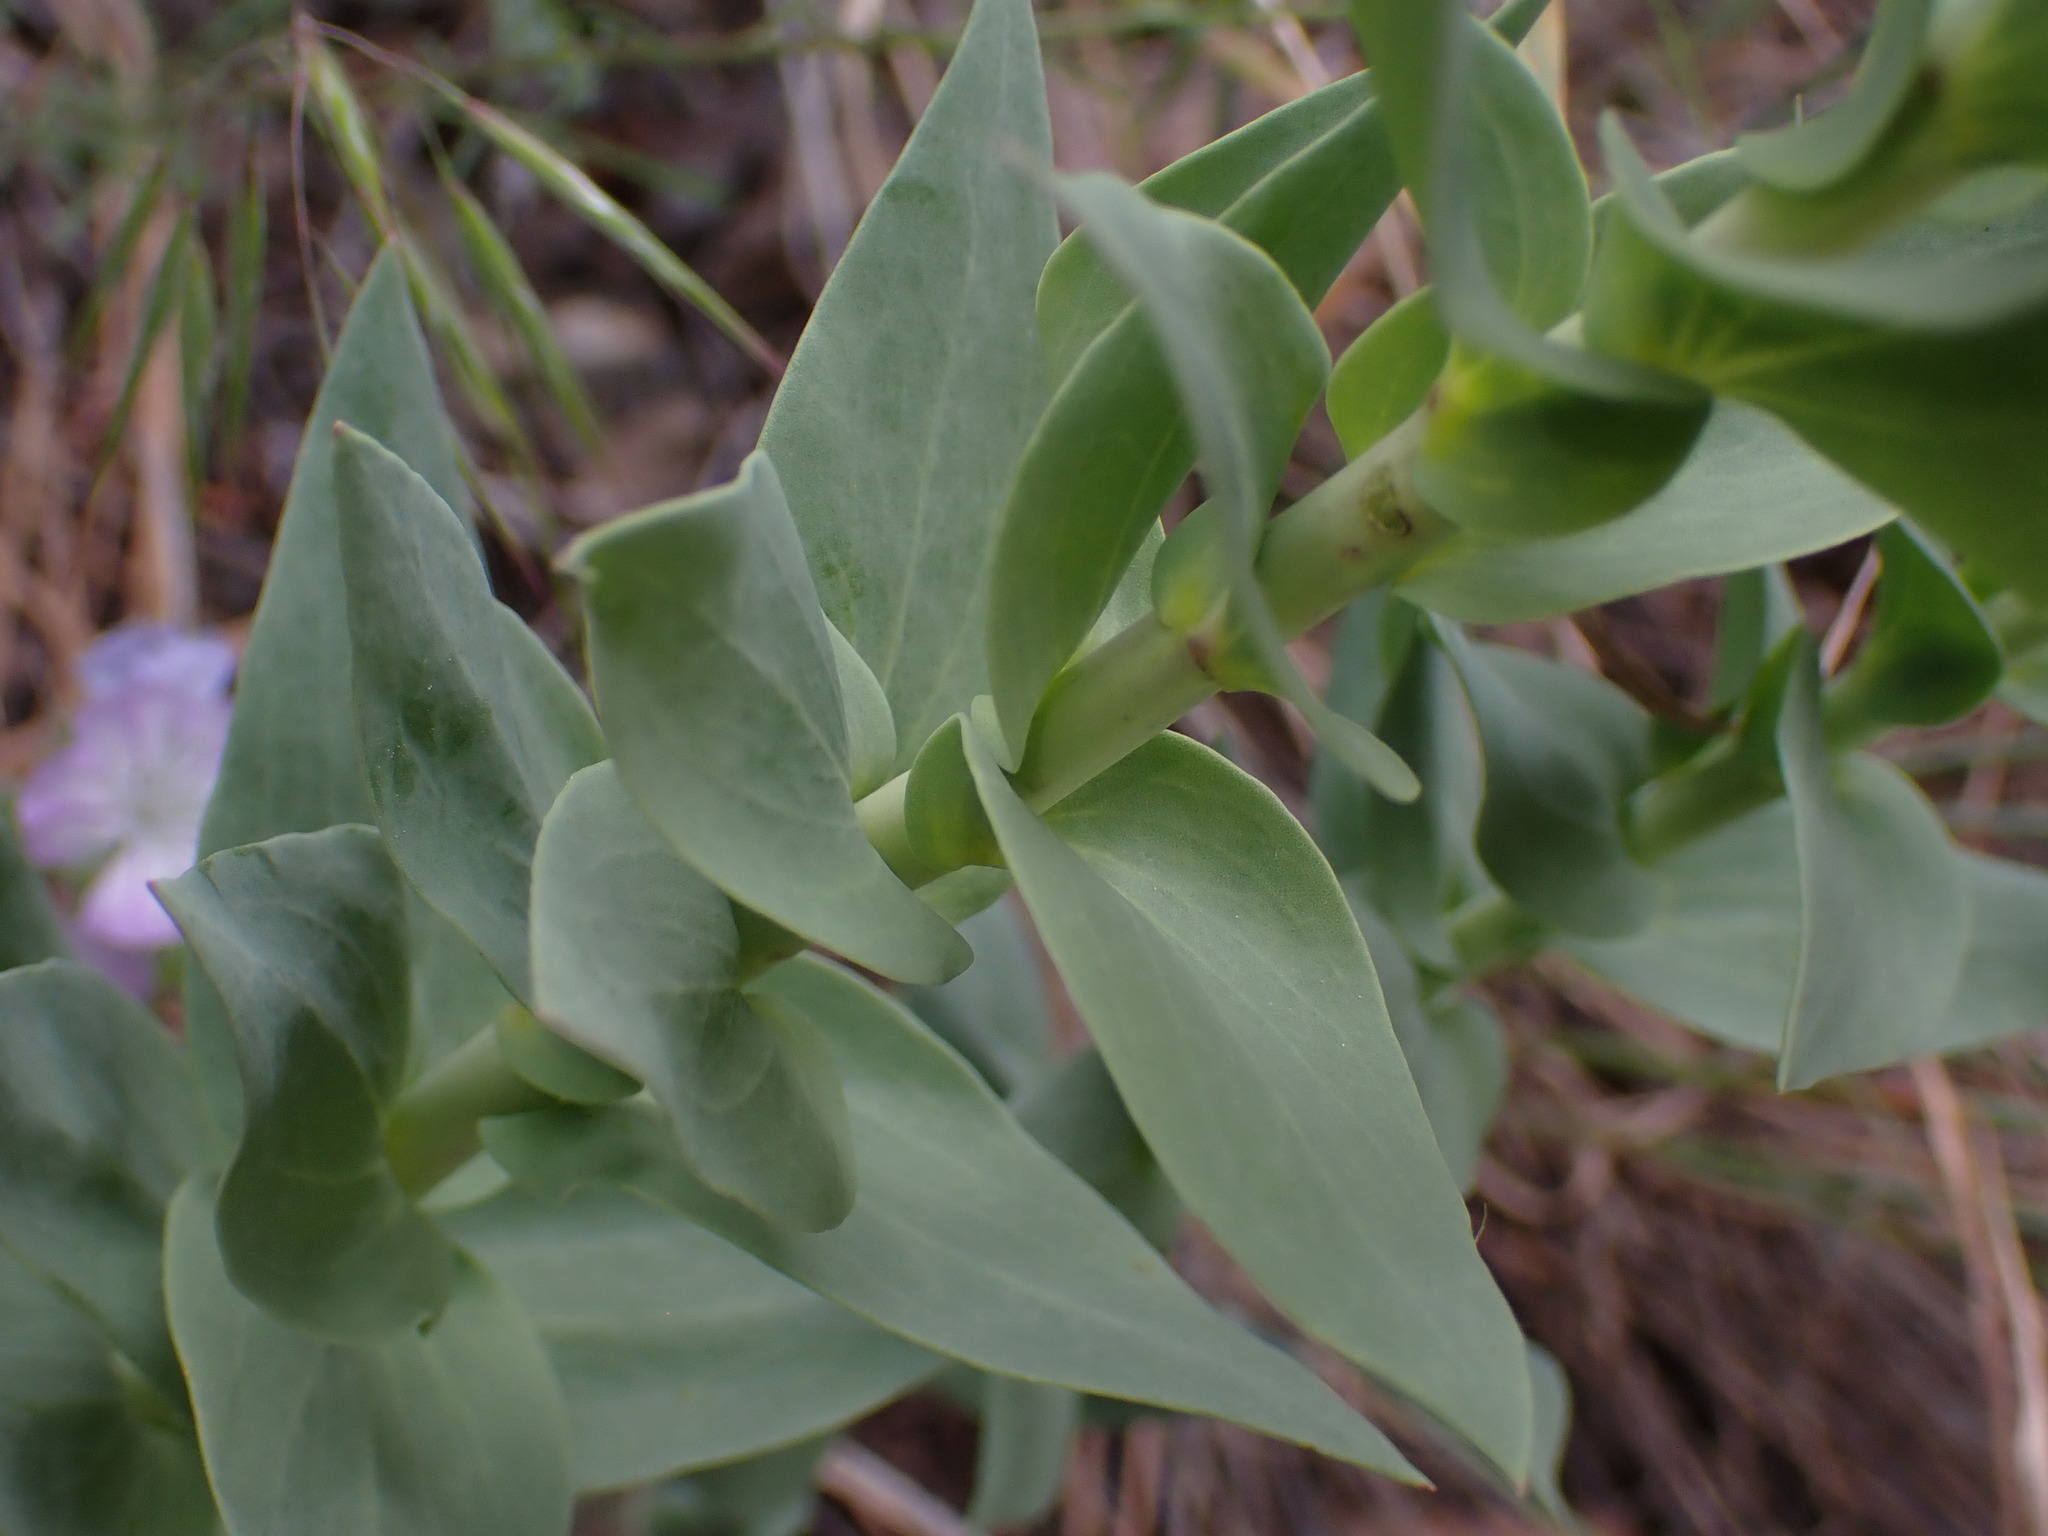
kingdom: Plantae
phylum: Tracheophyta
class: Magnoliopsida
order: Lamiales
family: Plantaginaceae
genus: Linaria
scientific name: Linaria dalmatica
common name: Dalmatian toadflax
